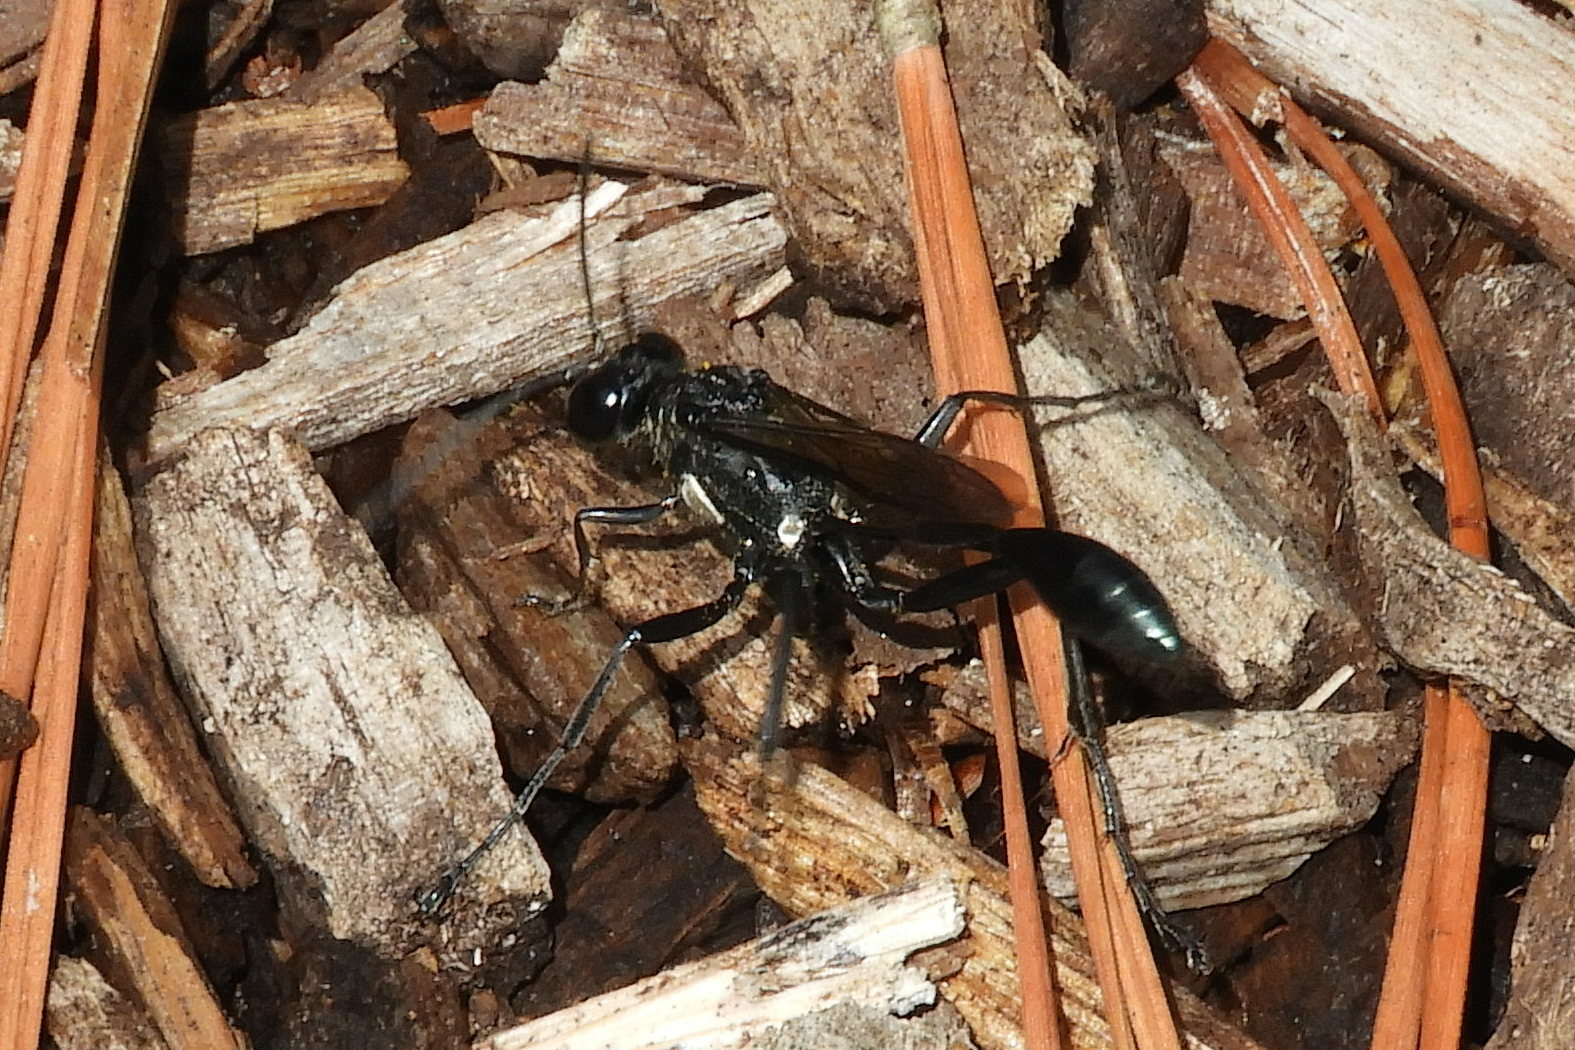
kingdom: Animalia
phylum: Arthropoda
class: Insecta
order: Hymenoptera
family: Sphecidae
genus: Eremnophila
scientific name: Eremnophila aureonotata
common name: Gold-marked thread-waisted wasp
